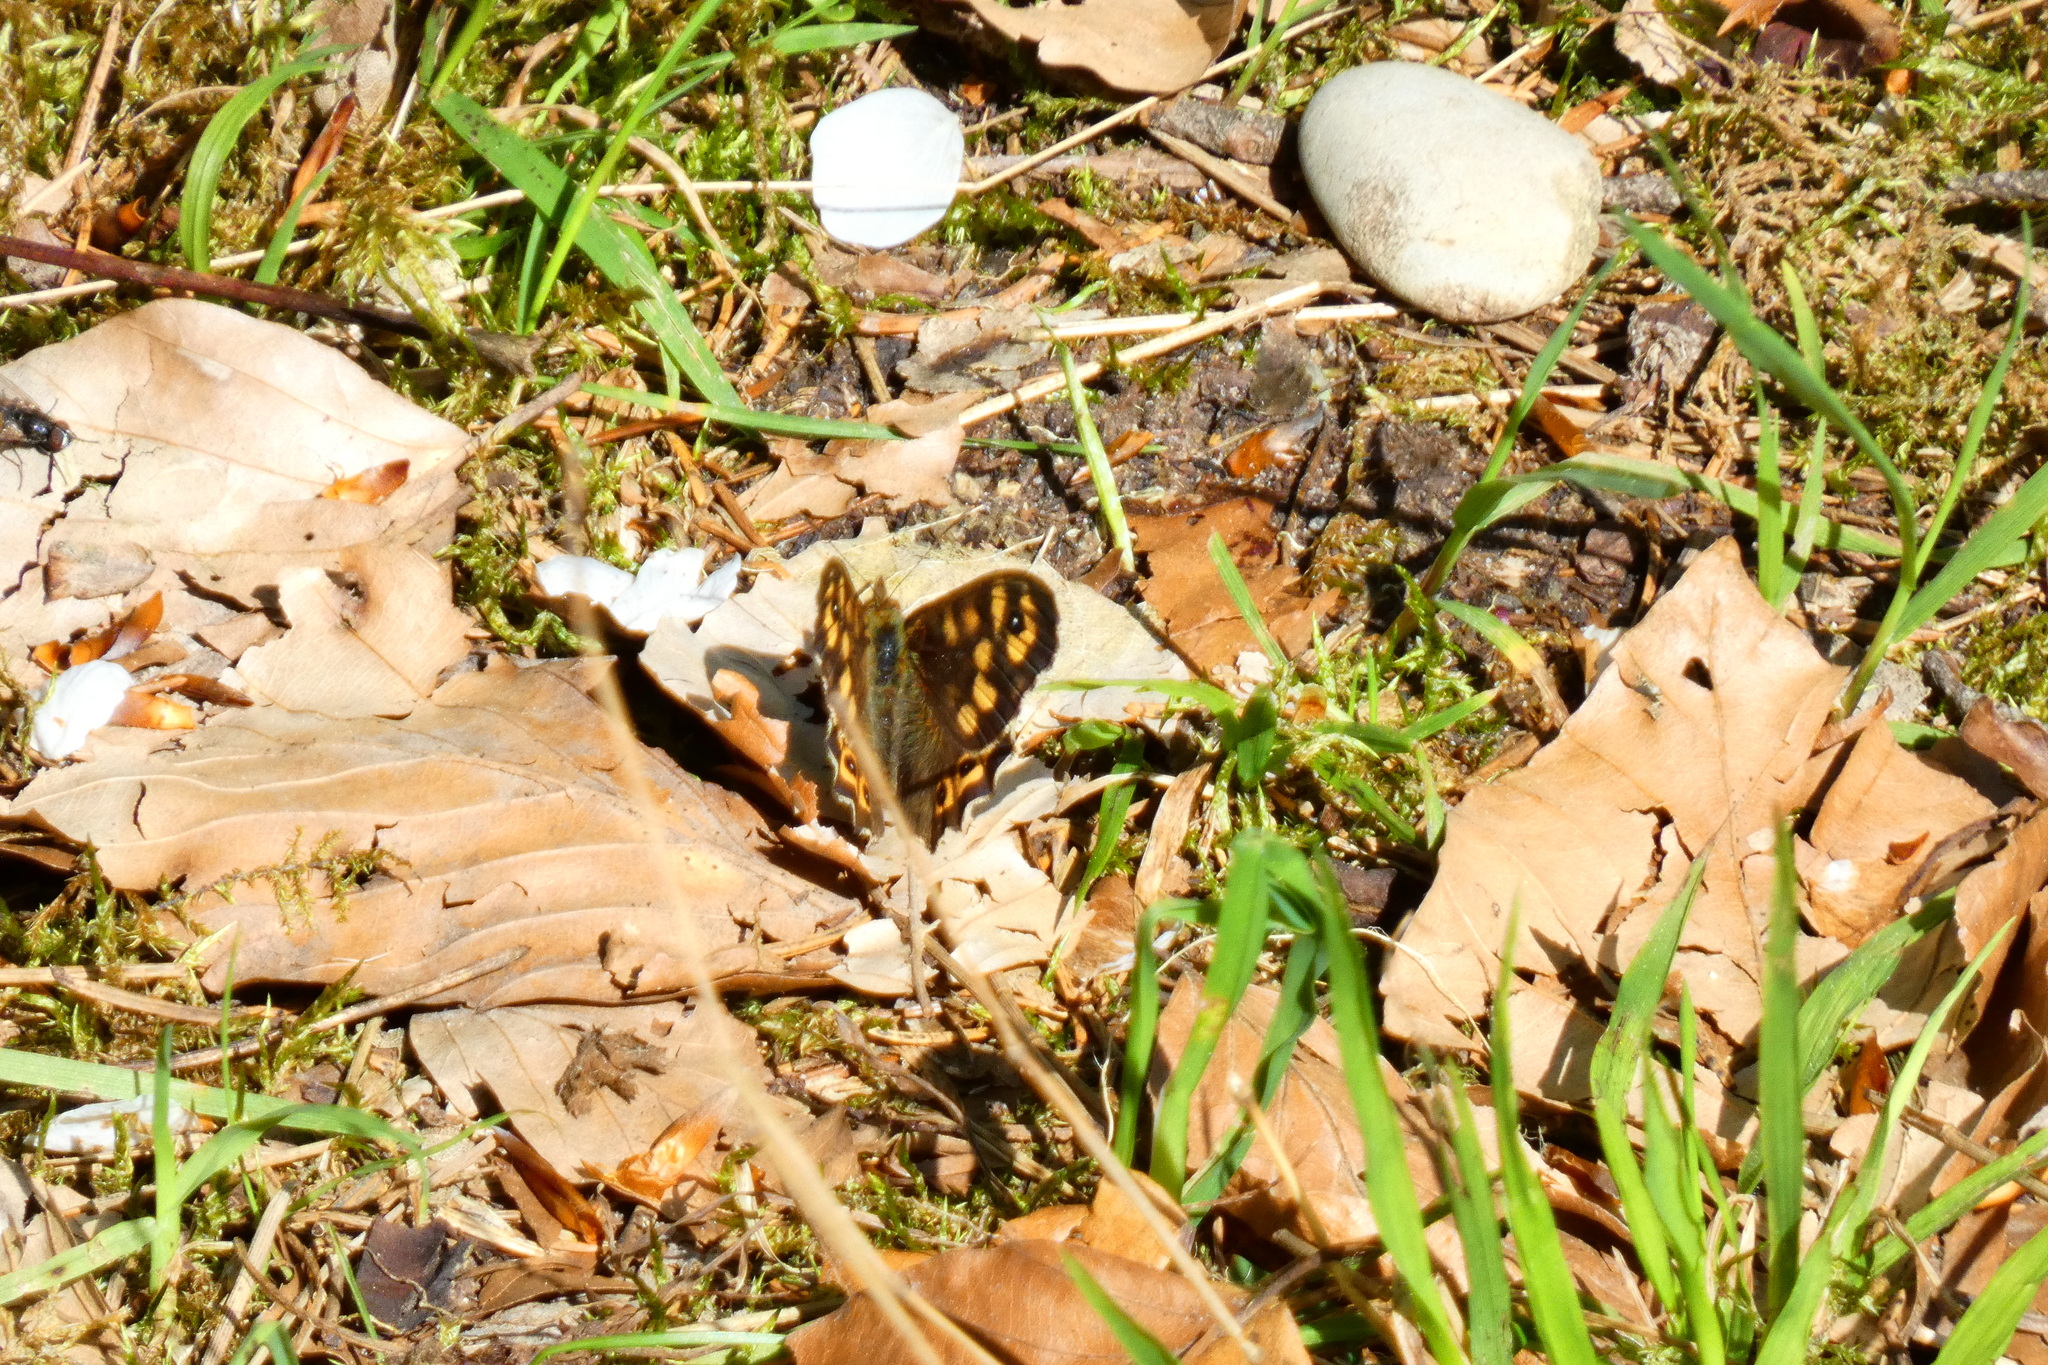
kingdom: Animalia
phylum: Arthropoda
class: Insecta
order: Lepidoptera
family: Nymphalidae
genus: Pararge
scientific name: Pararge aegeria
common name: Speckled wood
